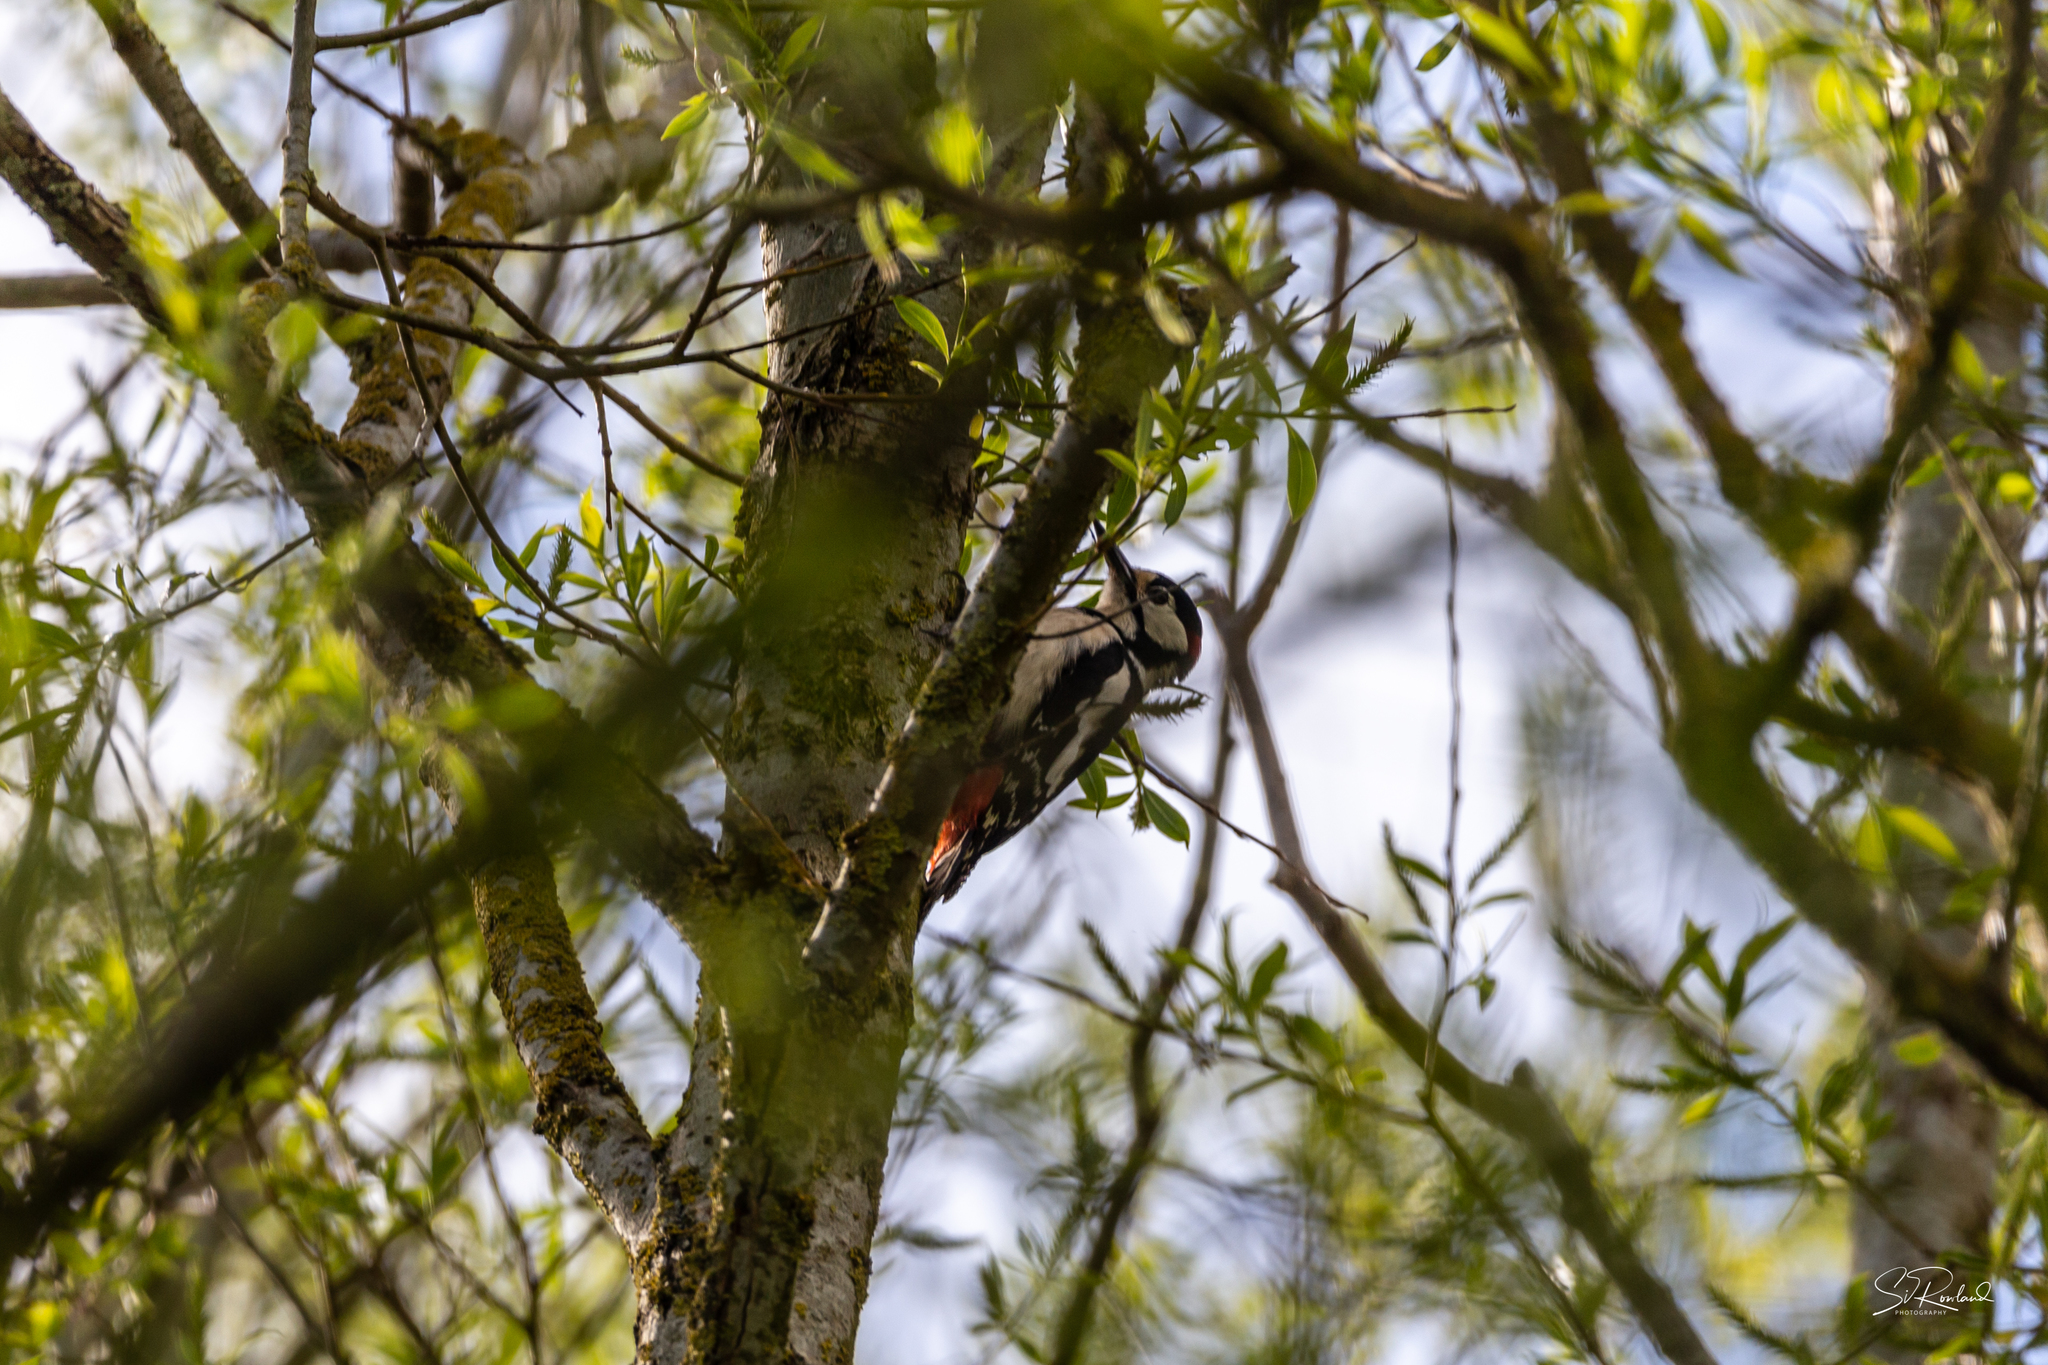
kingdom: Animalia
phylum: Chordata
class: Aves
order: Piciformes
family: Picidae
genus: Dendrocopos
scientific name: Dendrocopos major
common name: Great spotted woodpecker
